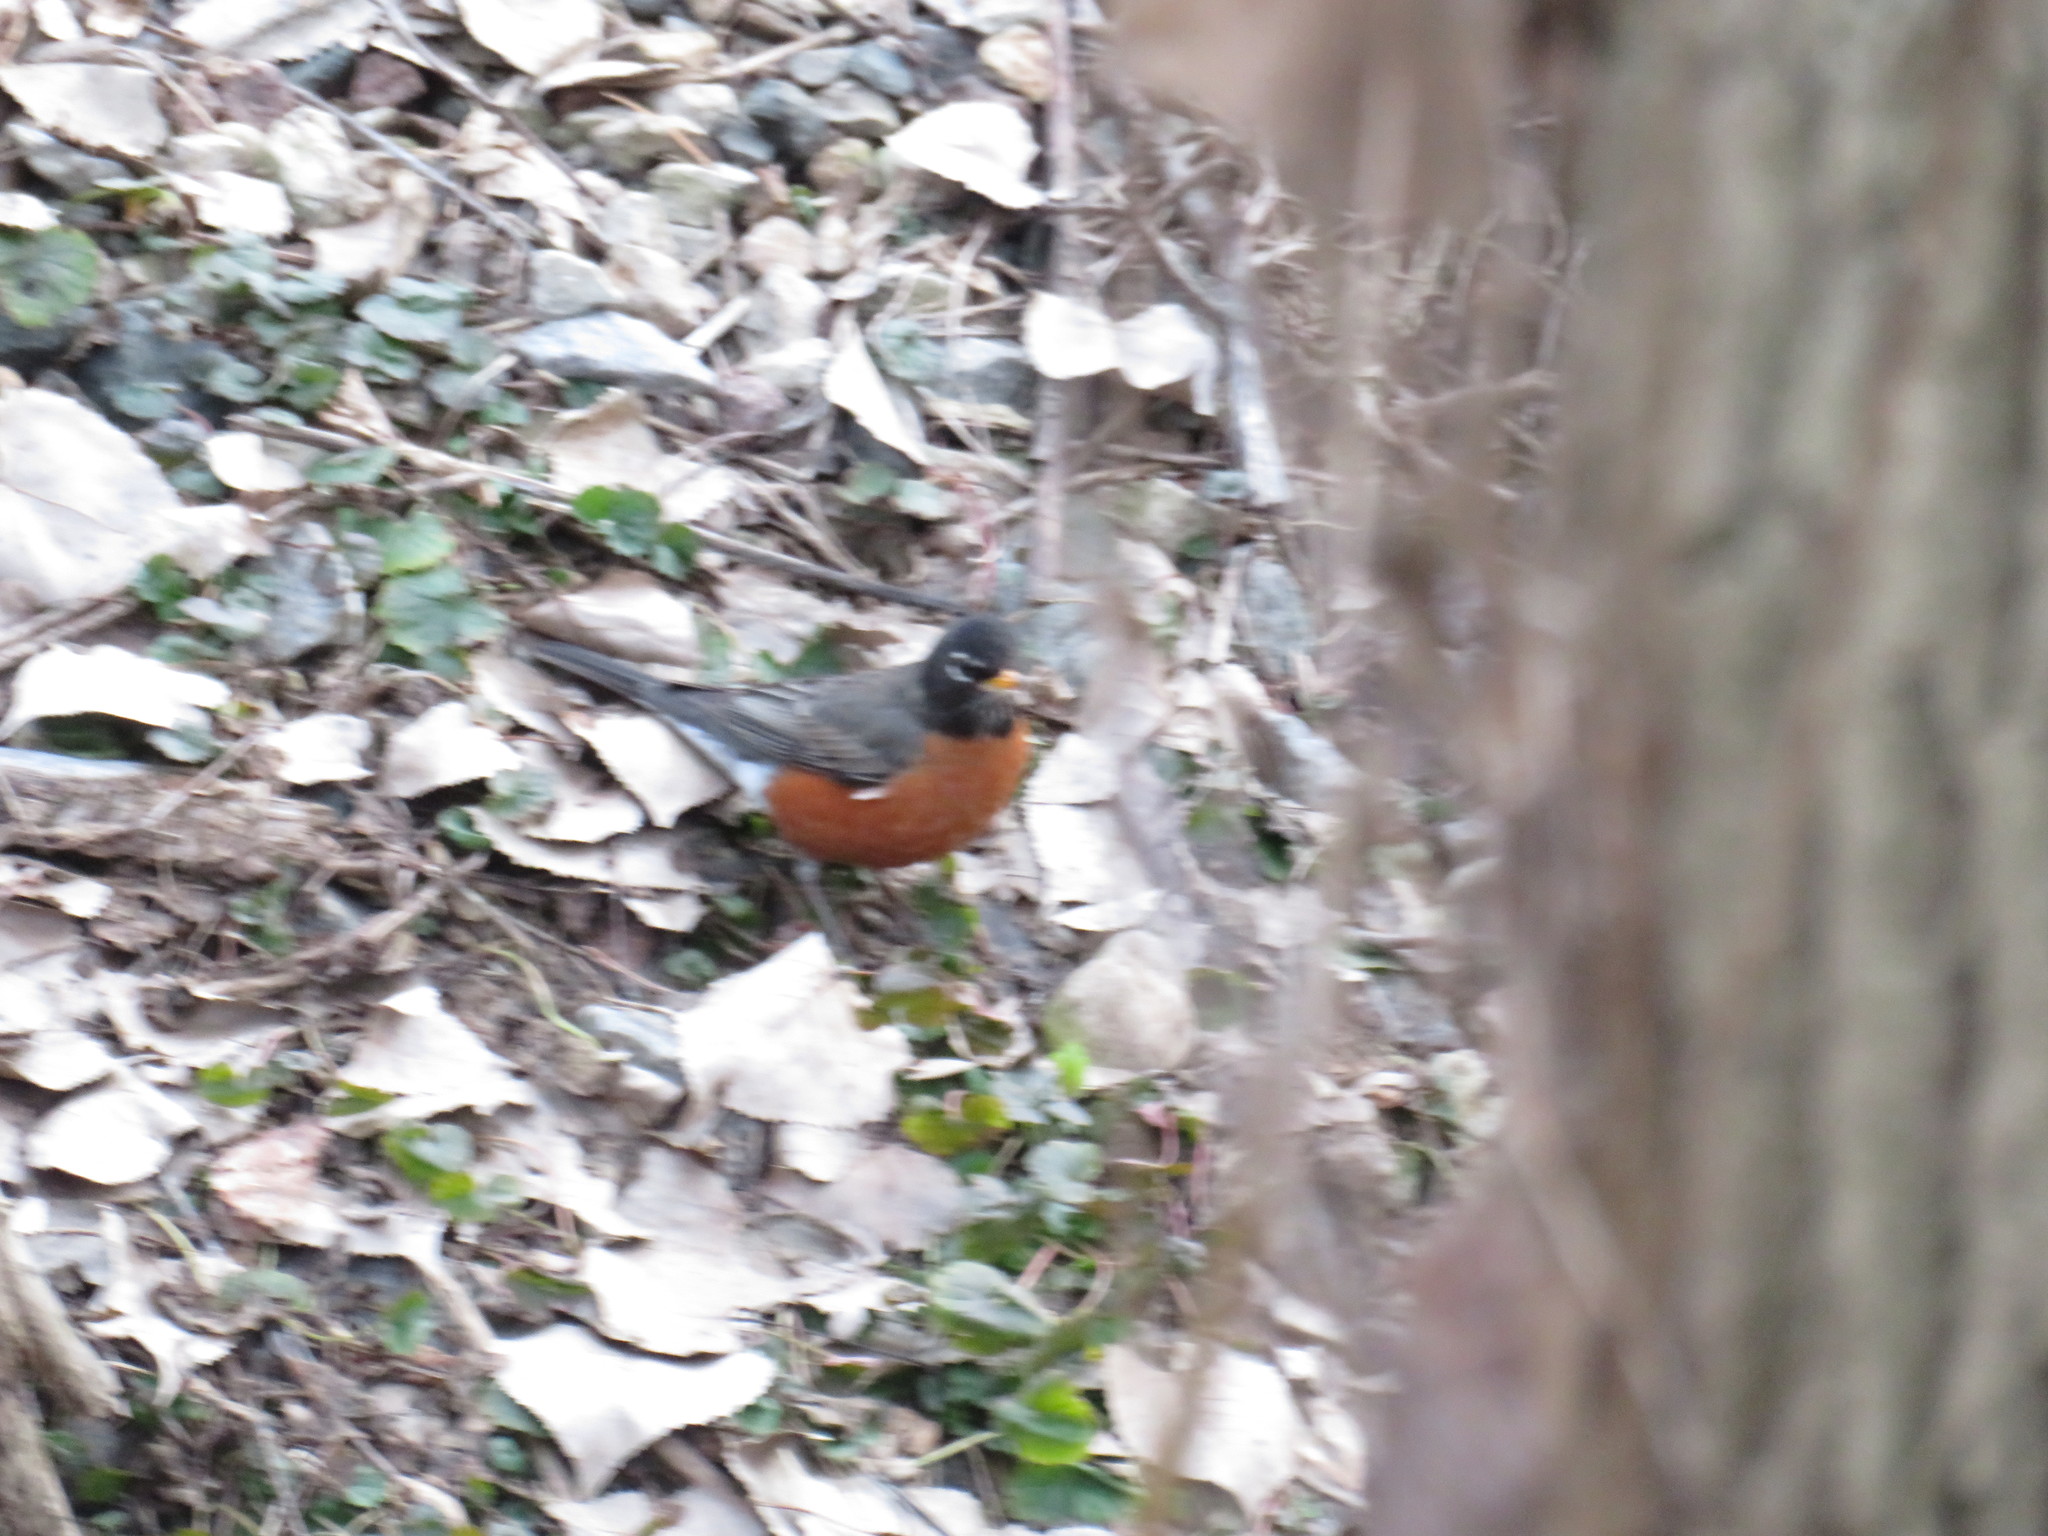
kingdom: Animalia
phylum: Chordata
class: Aves
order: Passeriformes
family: Turdidae
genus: Turdus
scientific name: Turdus migratorius
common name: American robin
